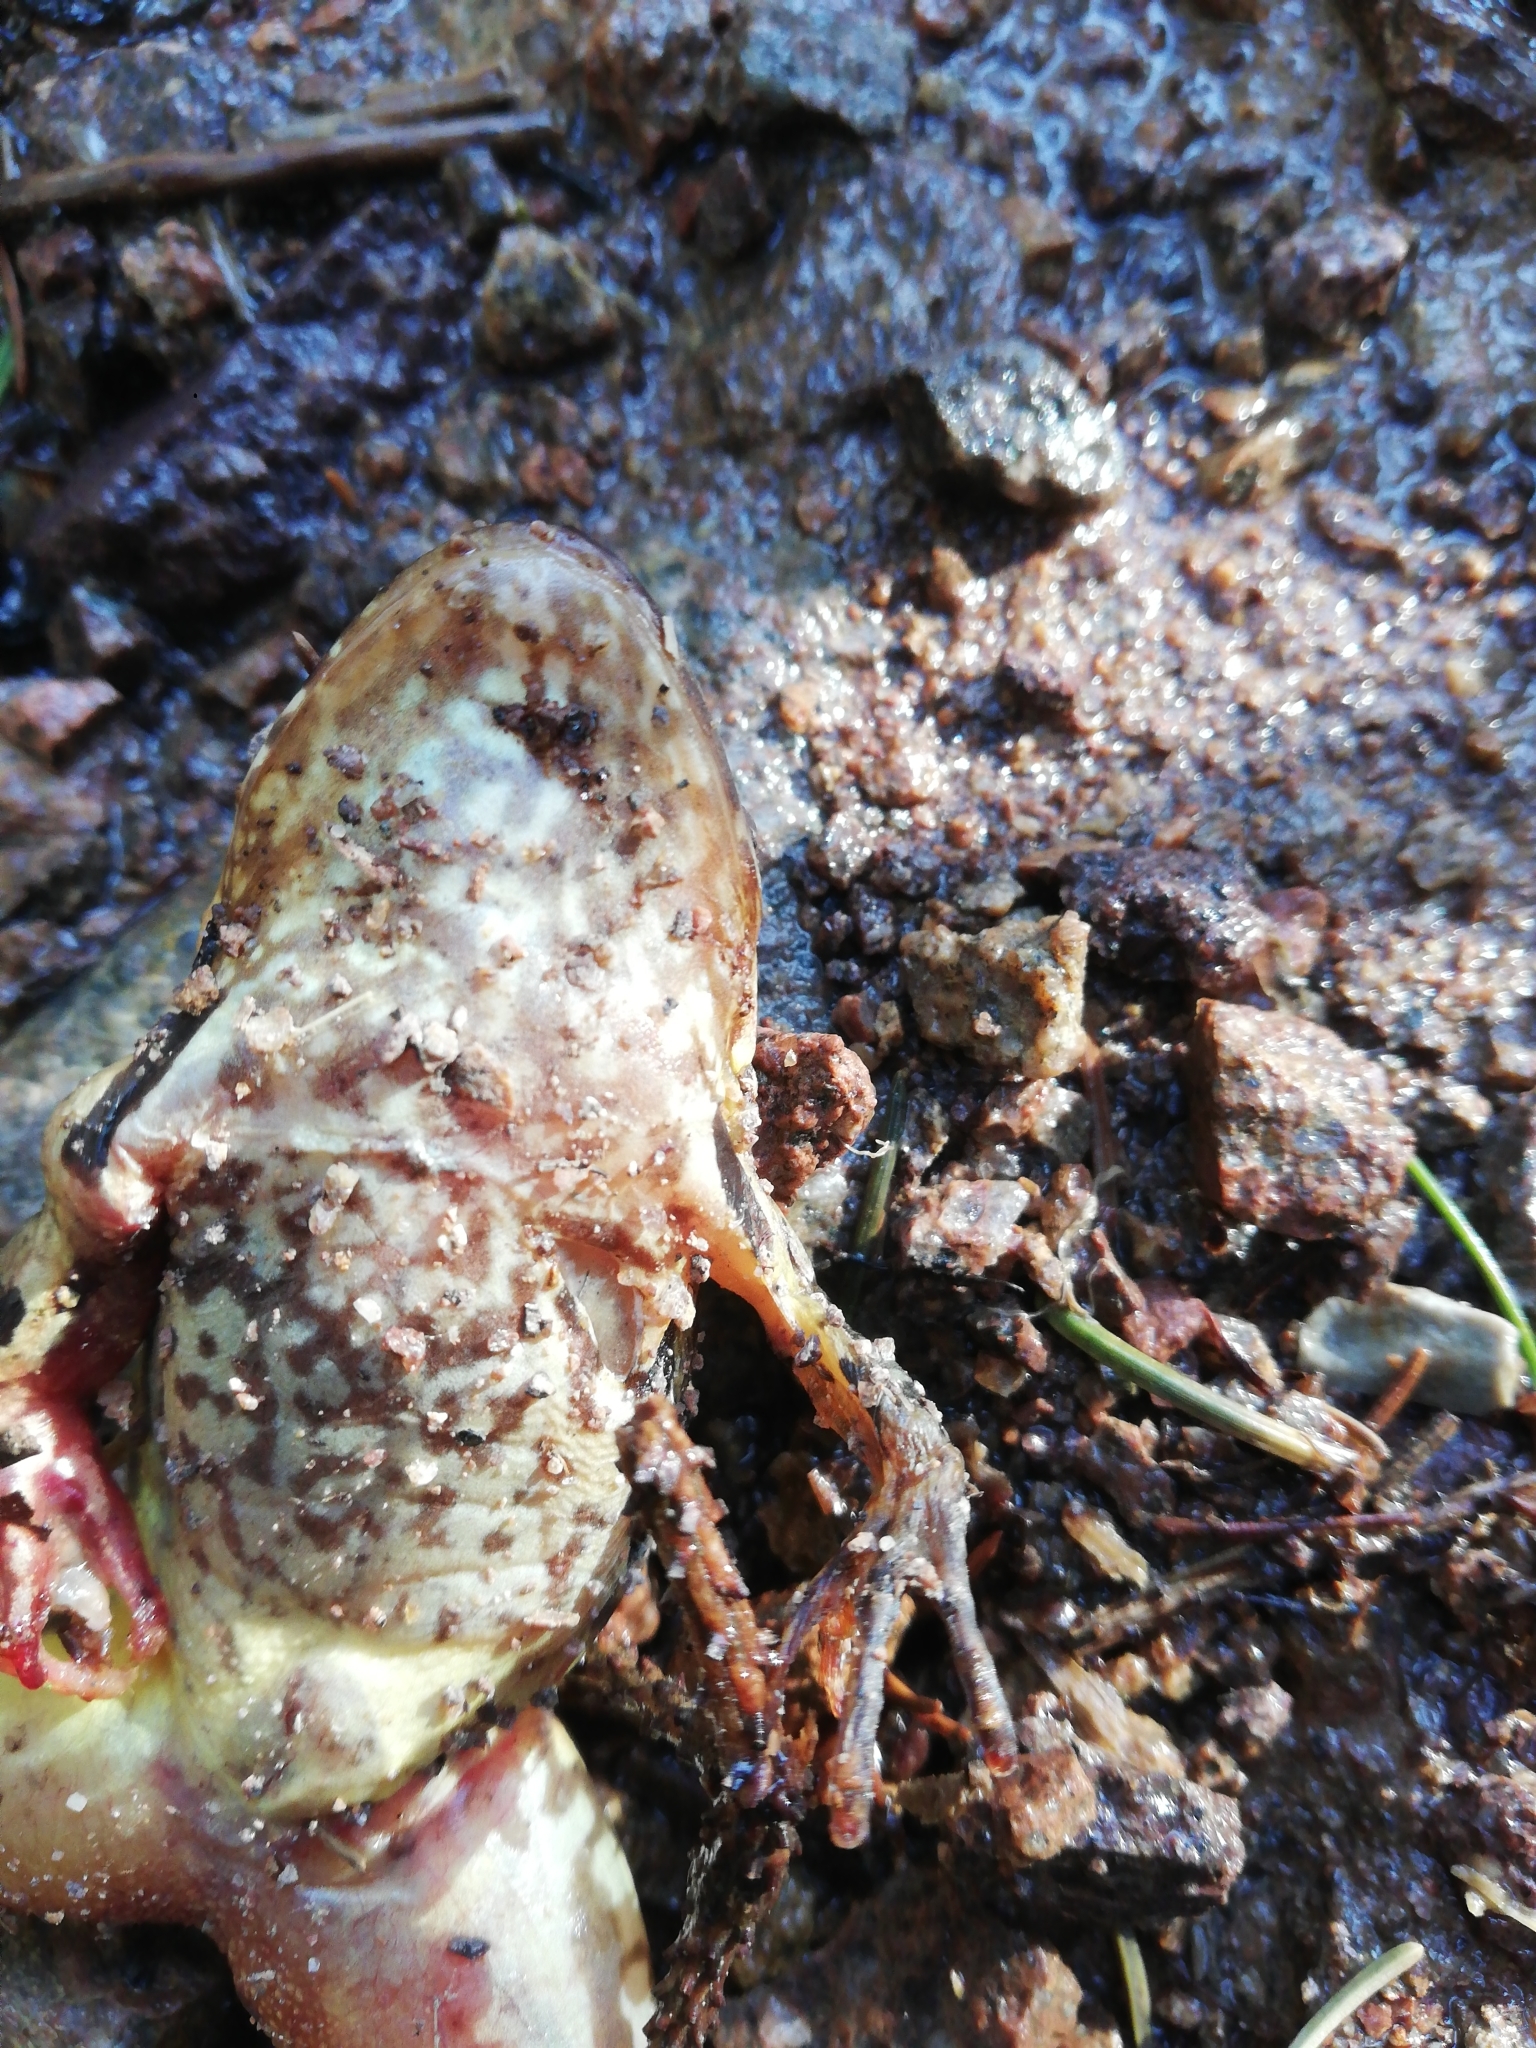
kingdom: Animalia
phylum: Chordata
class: Amphibia
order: Anura
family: Ranidae
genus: Rana
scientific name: Rana temporaria
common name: Common frog
